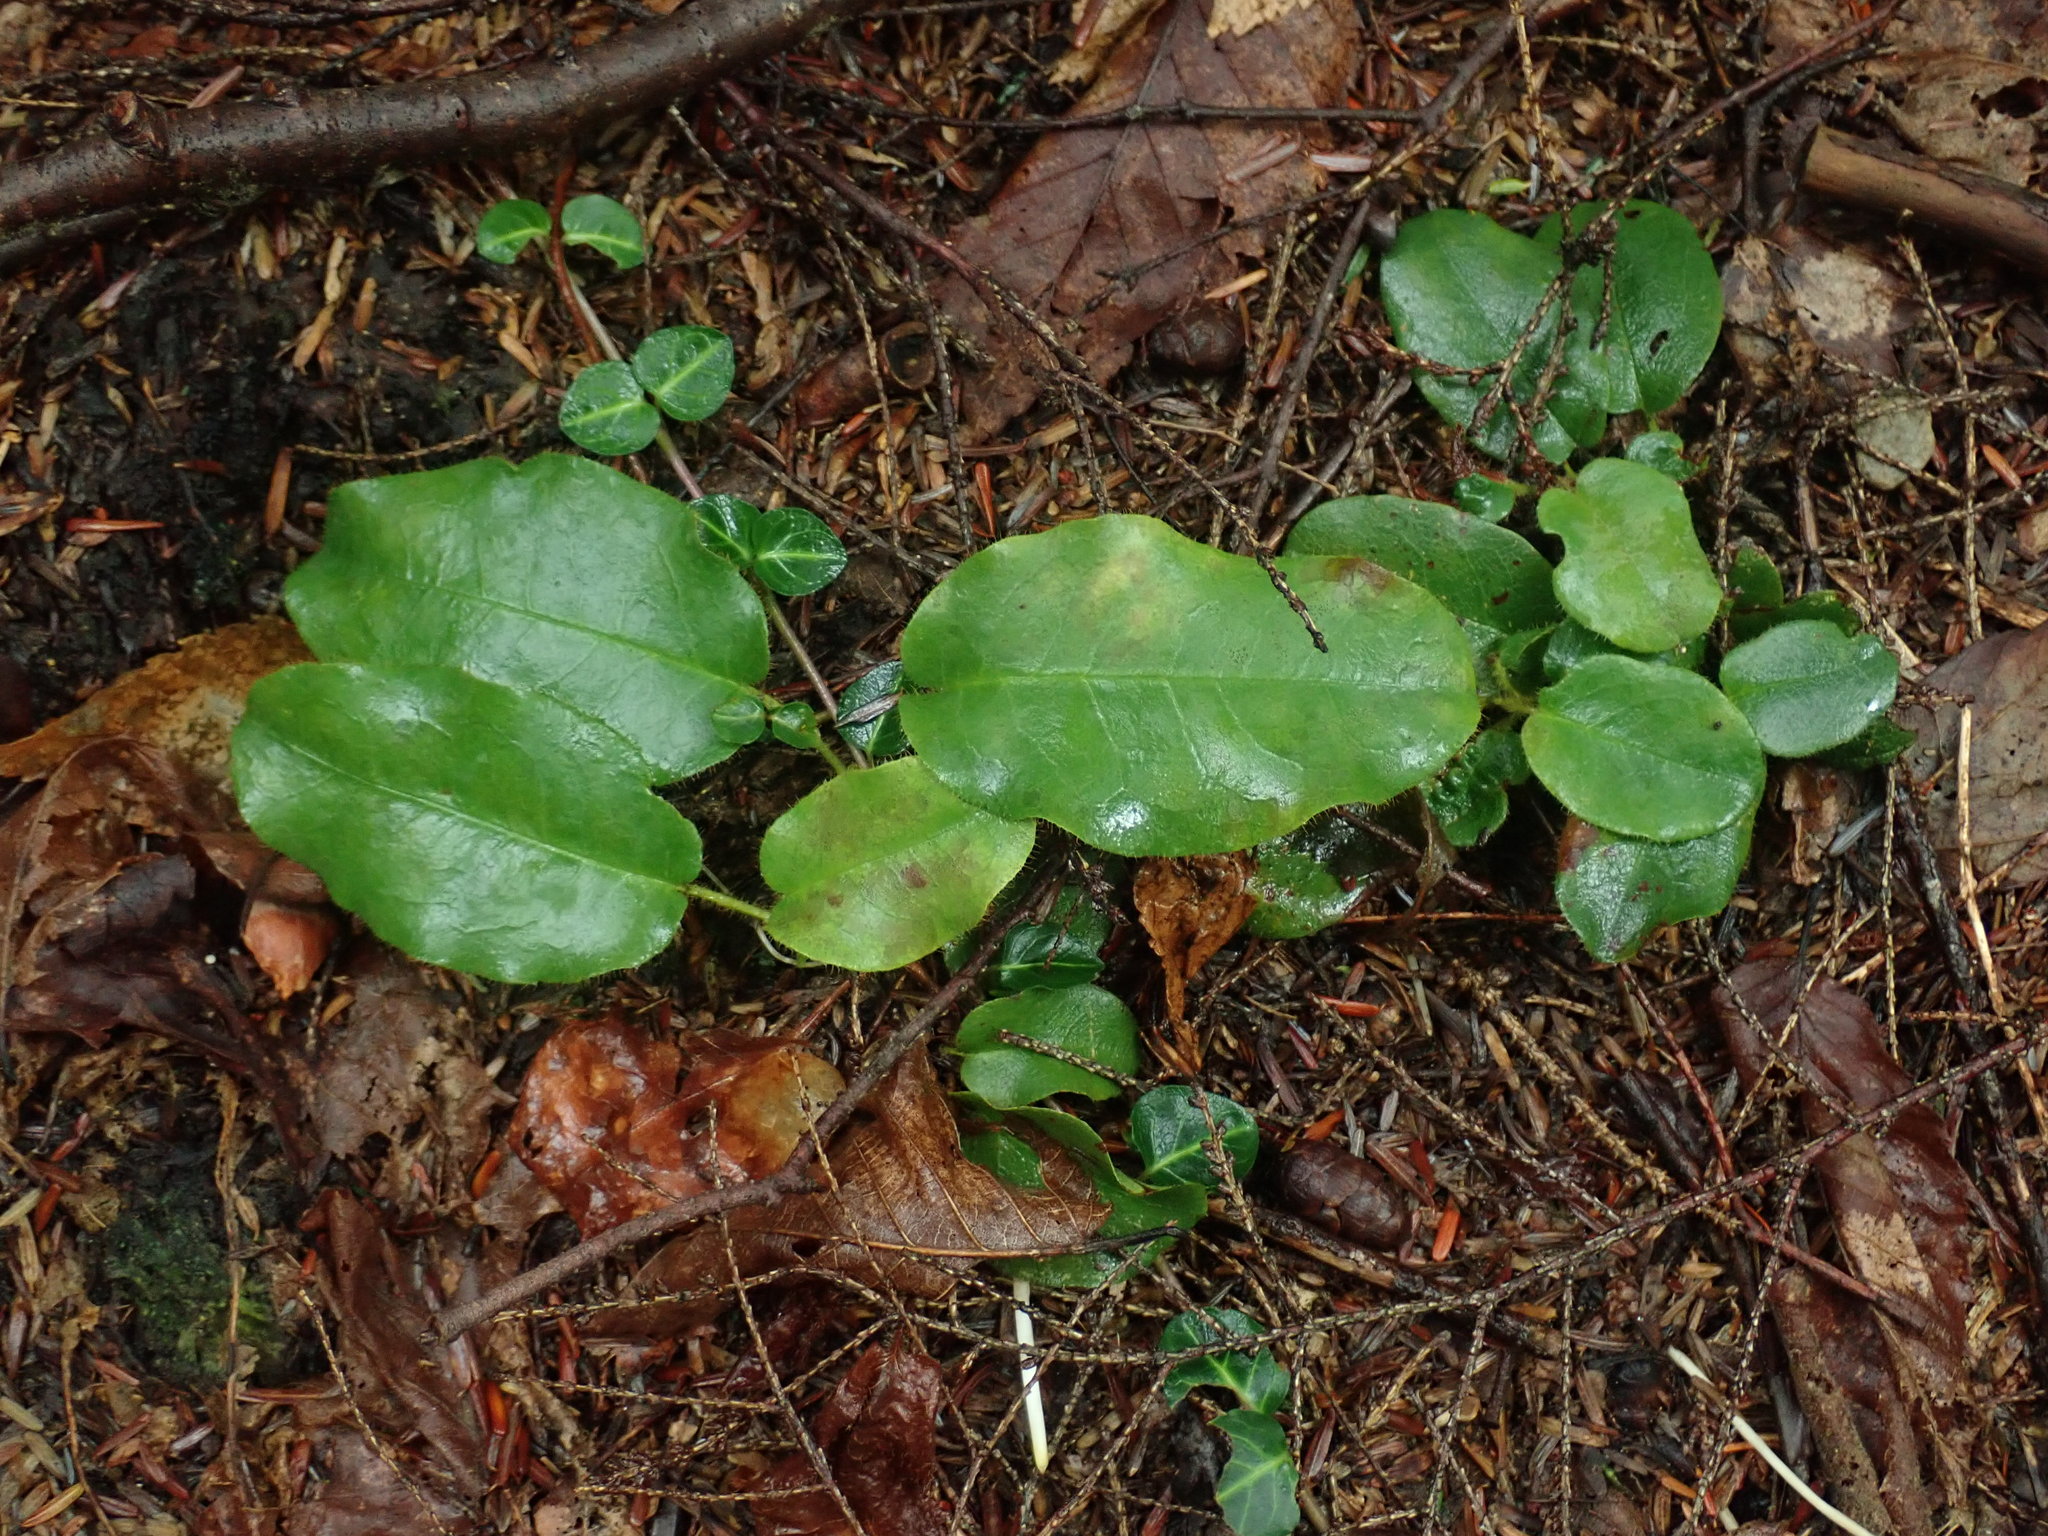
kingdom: Plantae
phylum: Tracheophyta
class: Magnoliopsida
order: Ericales
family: Ericaceae
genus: Epigaea
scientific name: Epigaea repens
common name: Gravelroot
